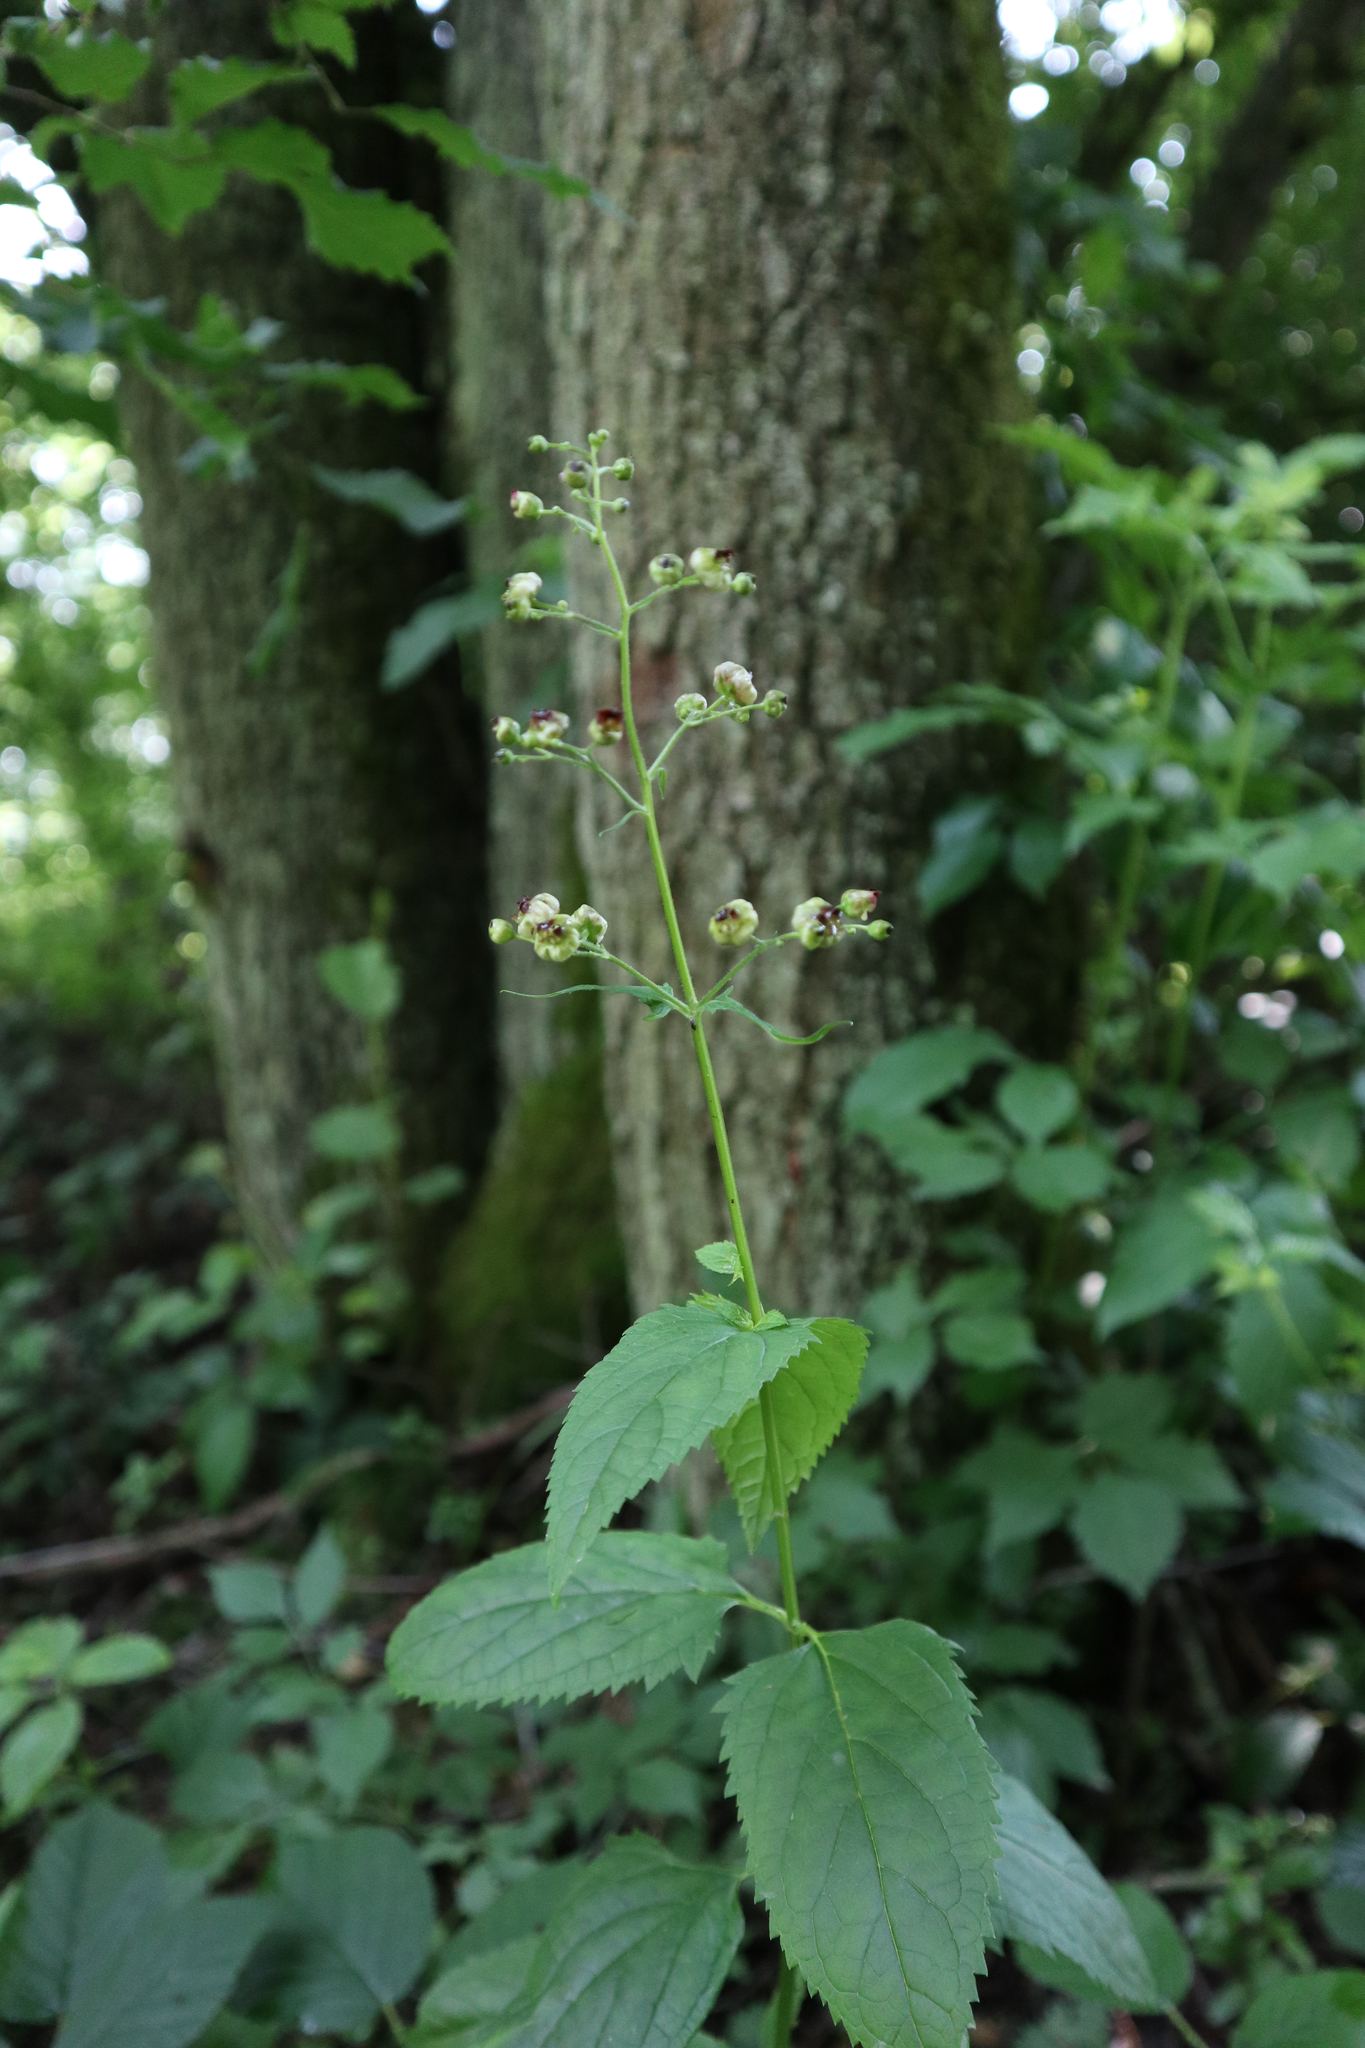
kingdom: Plantae
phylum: Tracheophyta
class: Magnoliopsida
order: Lamiales
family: Scrophulariaceae
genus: Scrophularia
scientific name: Scrophularia nodosa
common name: Common figwort
